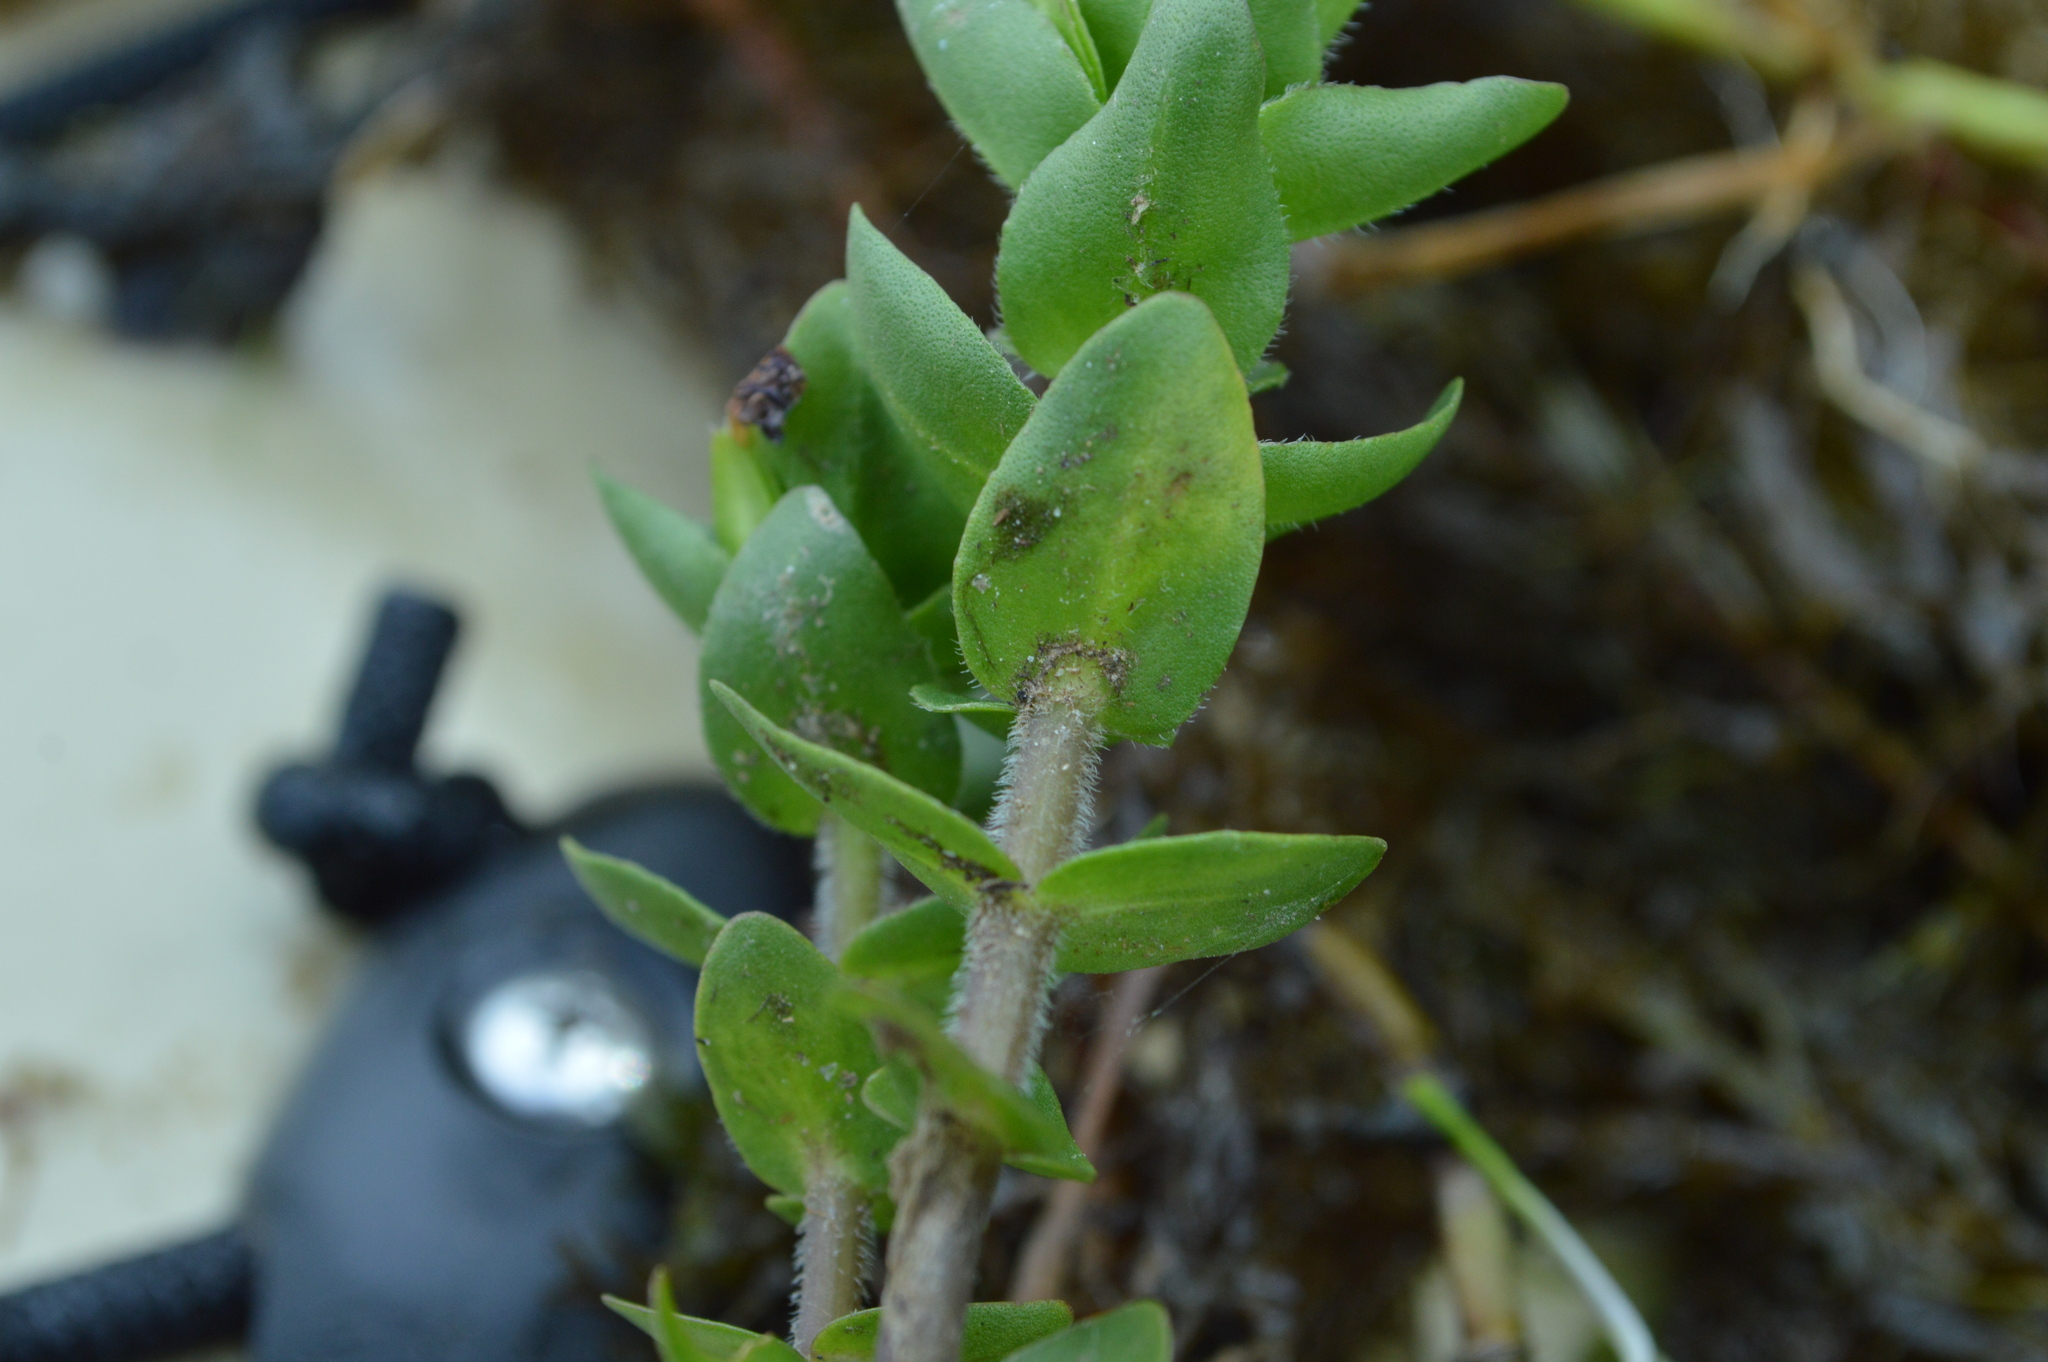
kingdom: Plantae
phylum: Tracheophyta
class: Magnoliopsida
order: Lamiales
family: Plantaginaceae
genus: Bacopa
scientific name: Bacopa caroliniana
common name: Lemon bacopa
